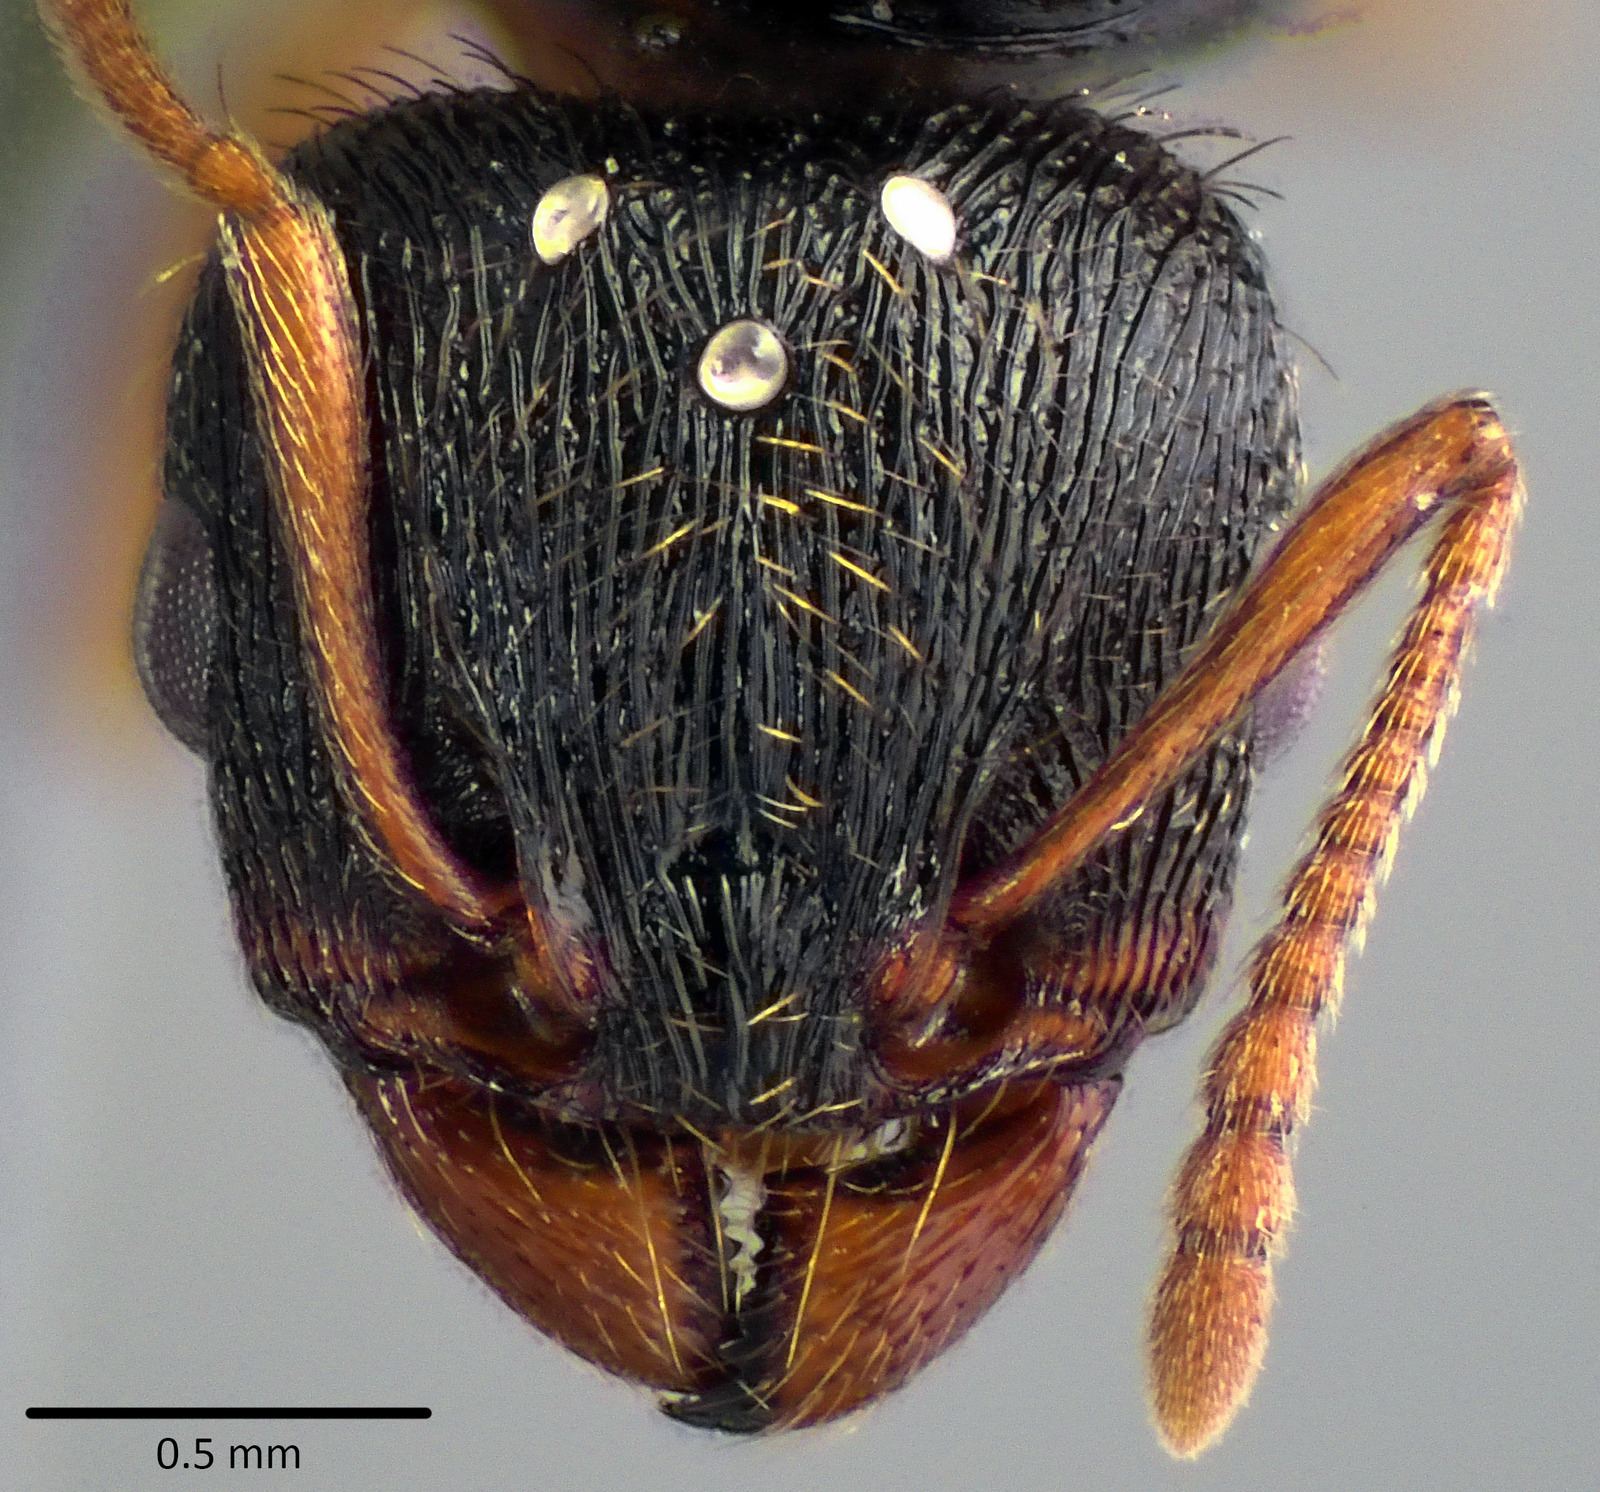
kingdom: Animalia
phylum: Arthropoda
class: Insecta
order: Hymenoptera
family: Formicidae
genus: Tetramorium
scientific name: Tetramorium immigrans
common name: Pavement ant
